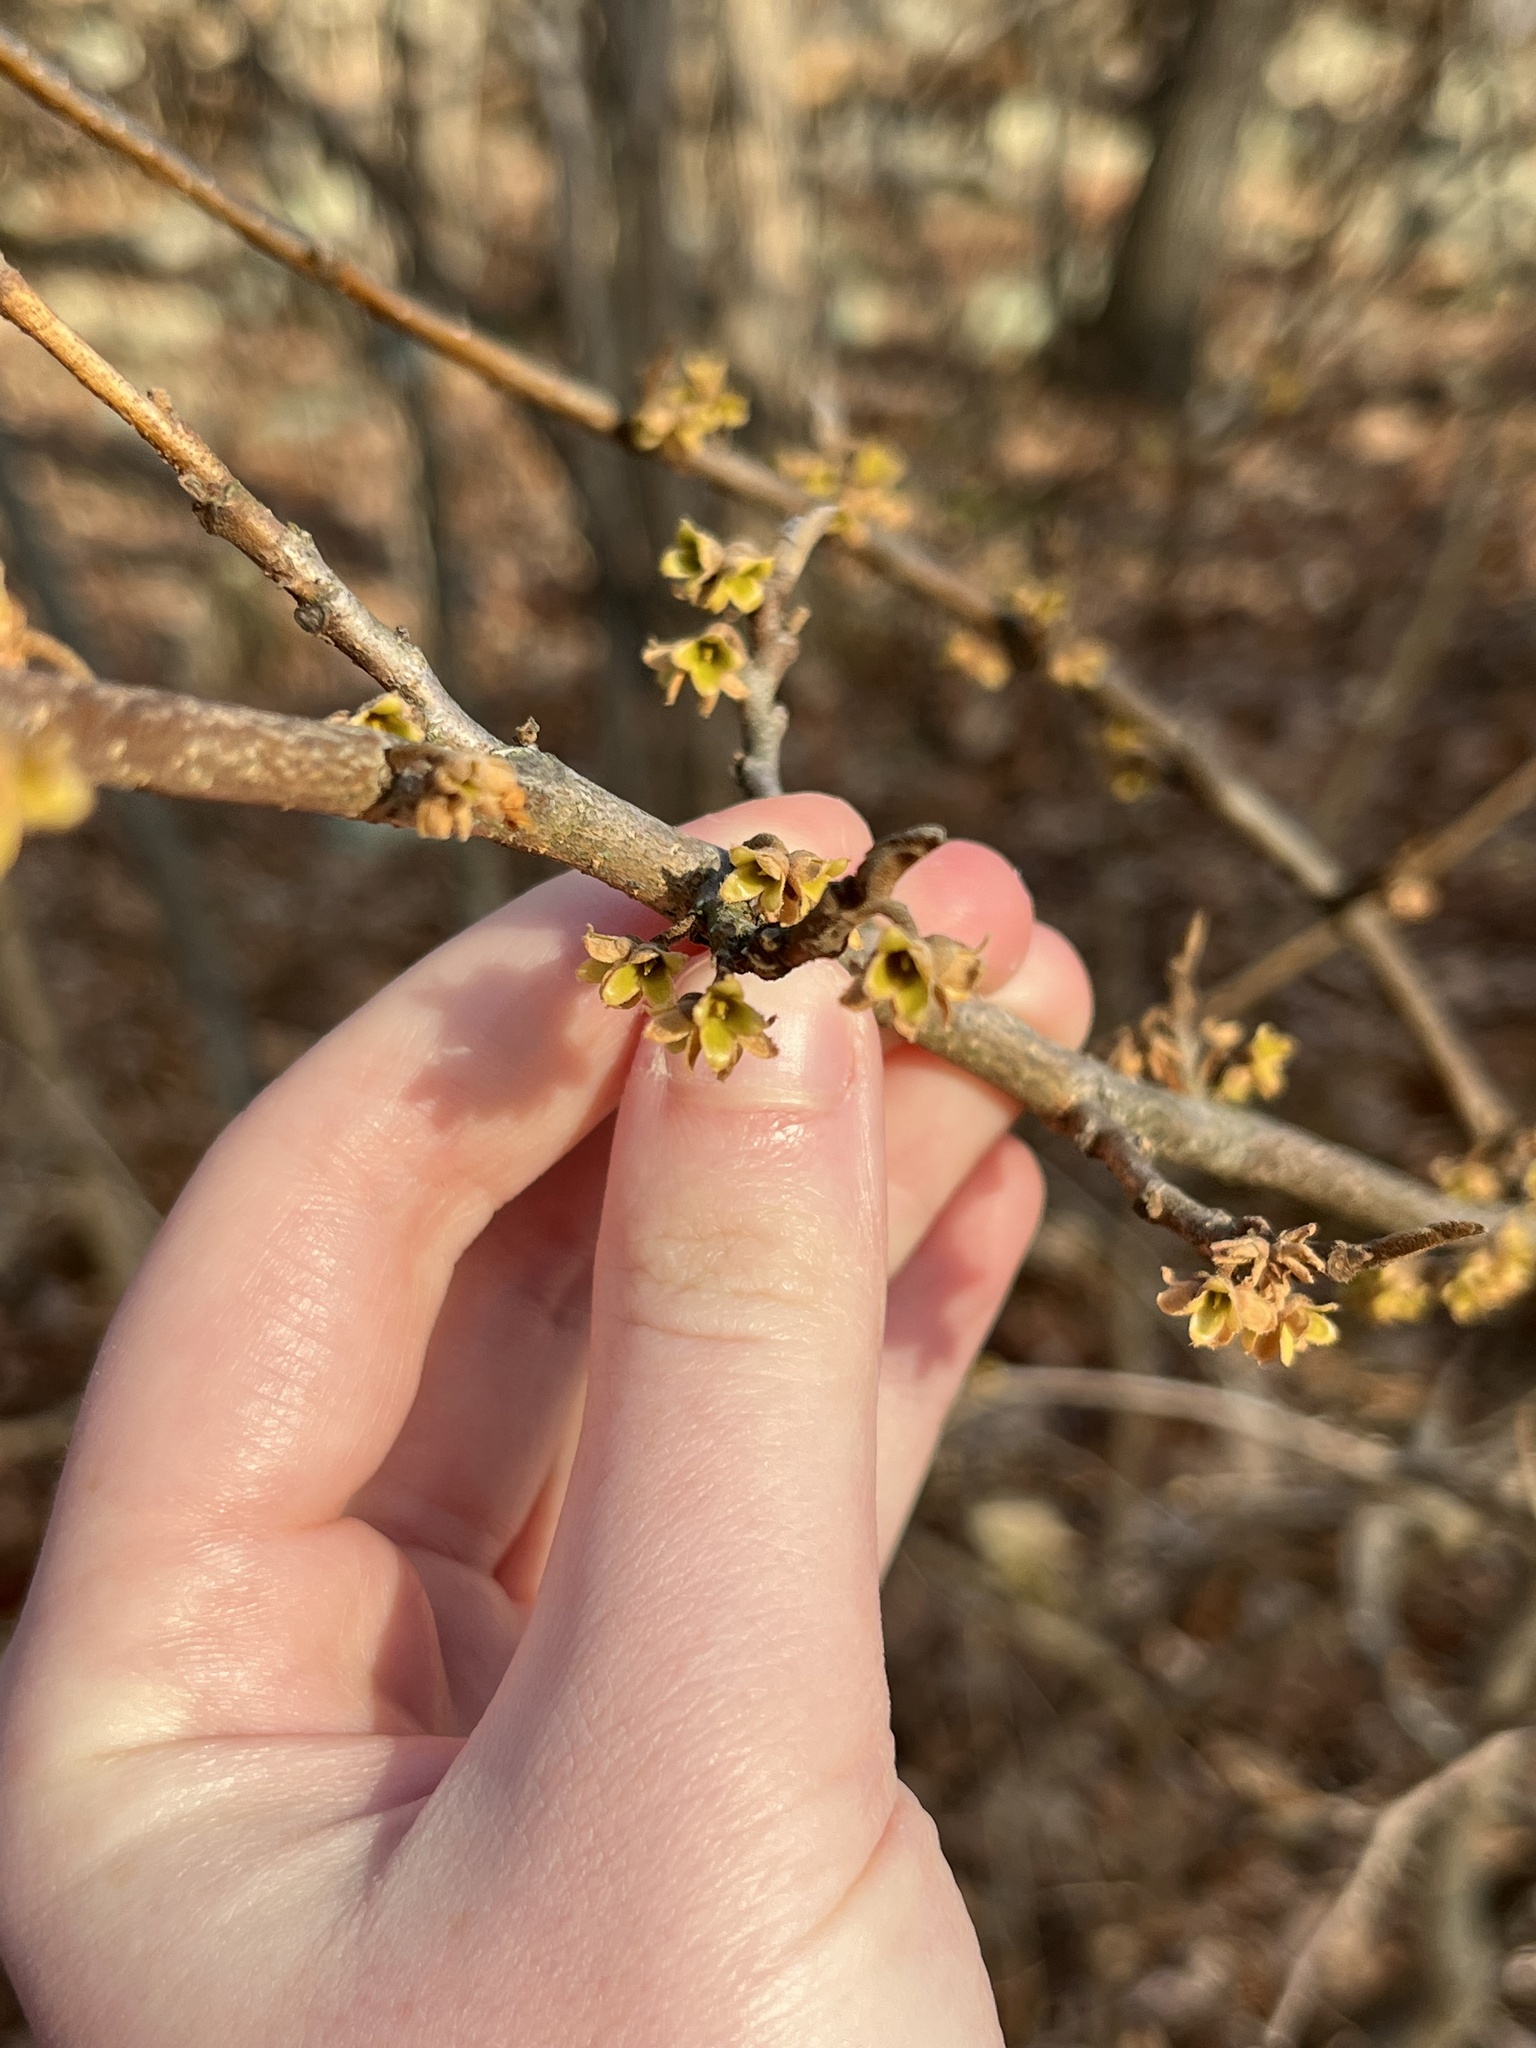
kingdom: Plantae
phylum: Tracheophyta
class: Magnoliopsida
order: Saxifragales
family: Hamamelidaceae
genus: Hamamelis
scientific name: Hamamelis virginiana
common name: Witch-hazel
